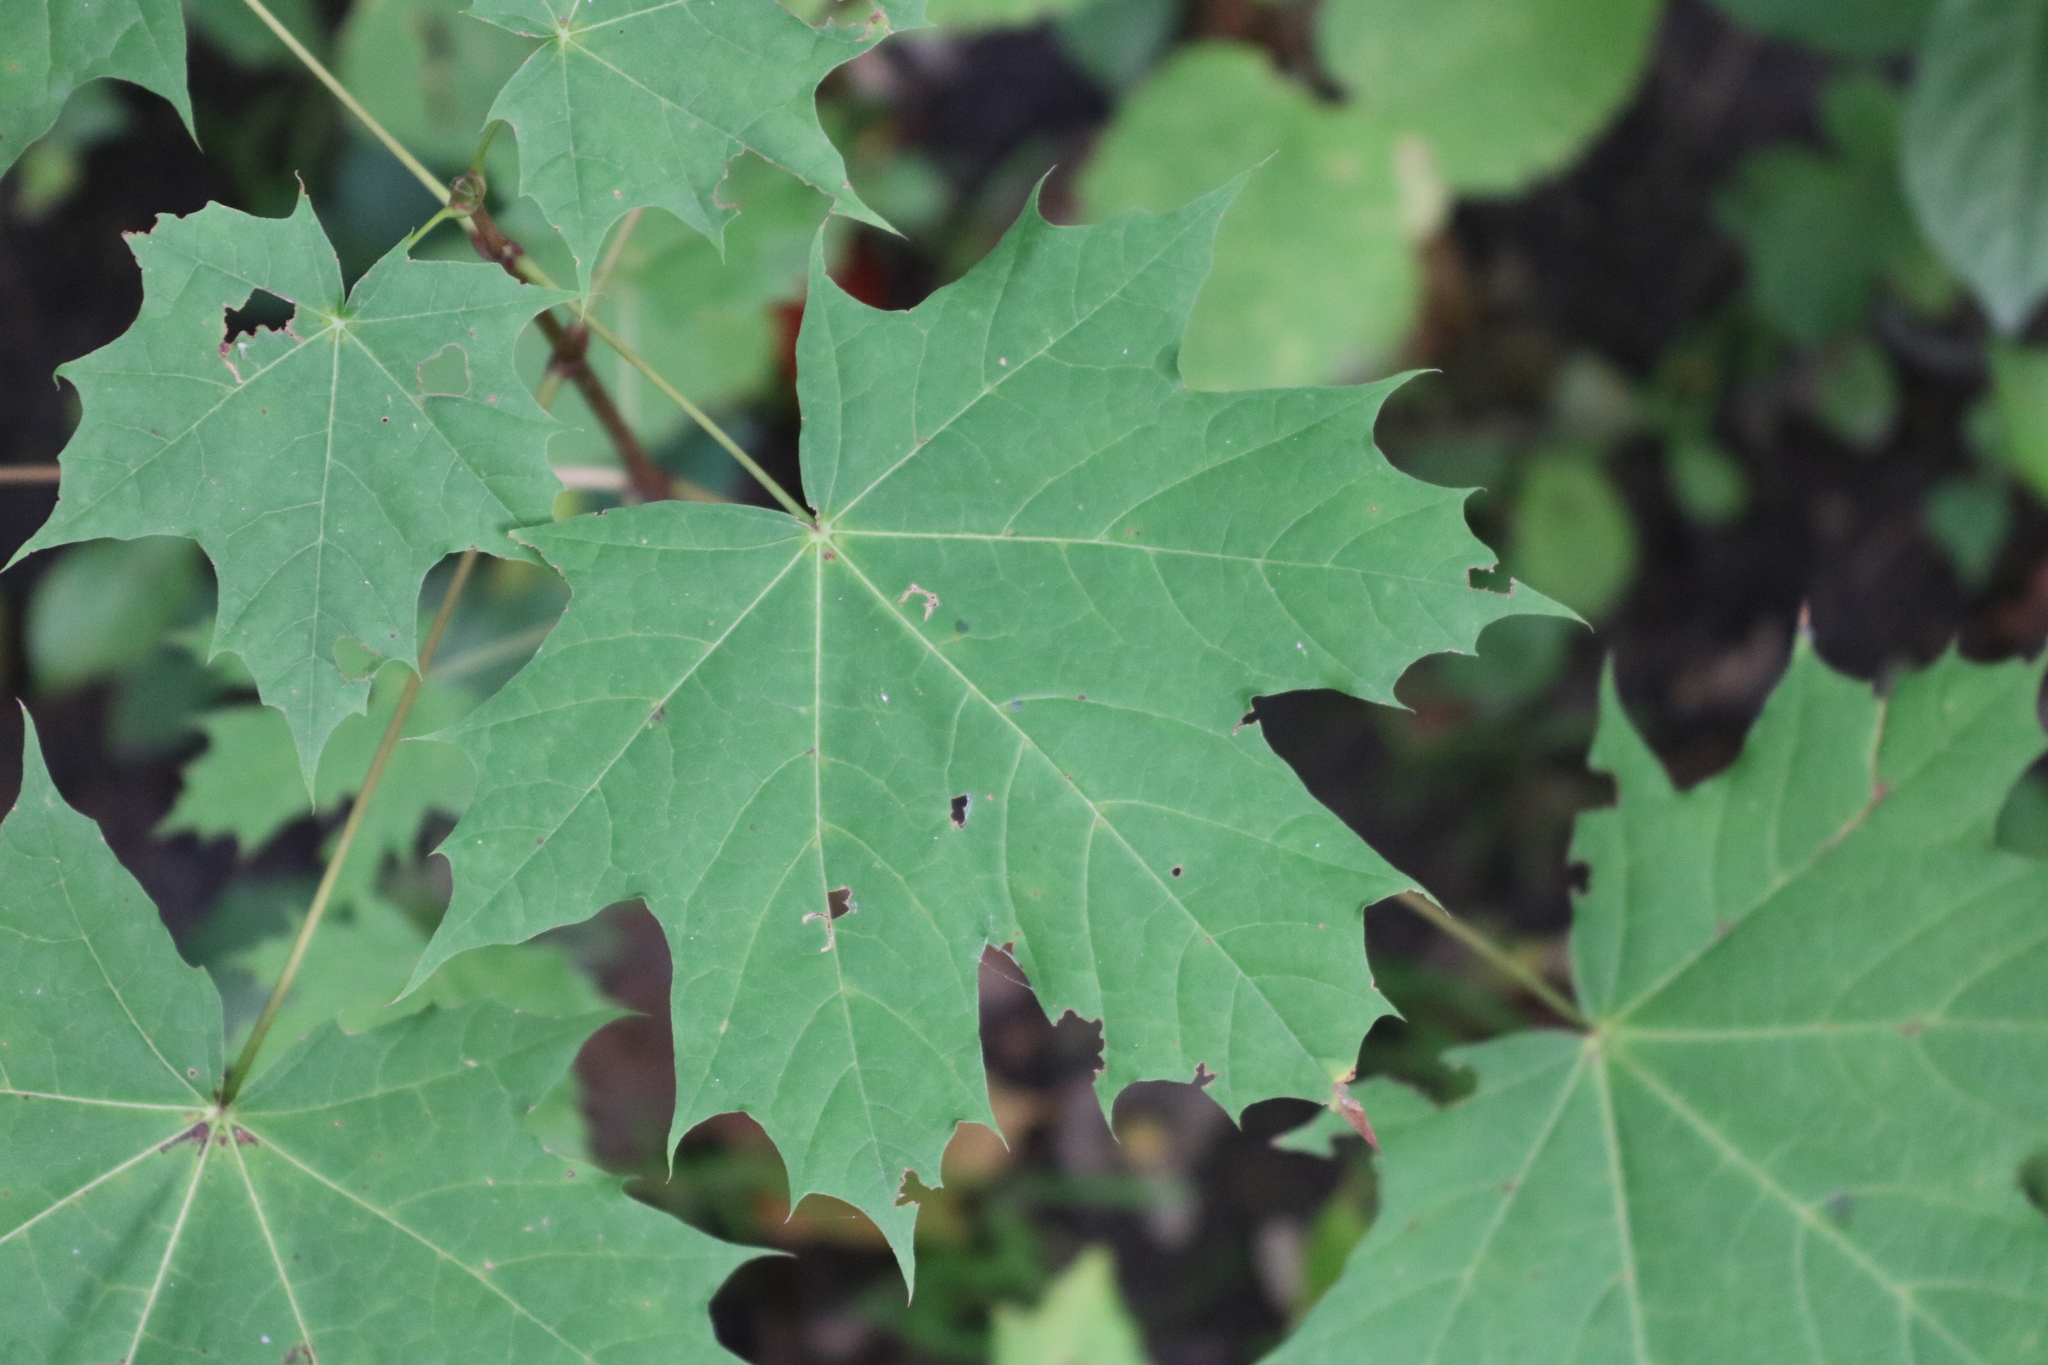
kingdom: Plantae
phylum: Tracheophyta
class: Magnoliopsida
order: Sapindales
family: Sapindaceae
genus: Acer
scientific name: Acer platanoides
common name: Norway maple
